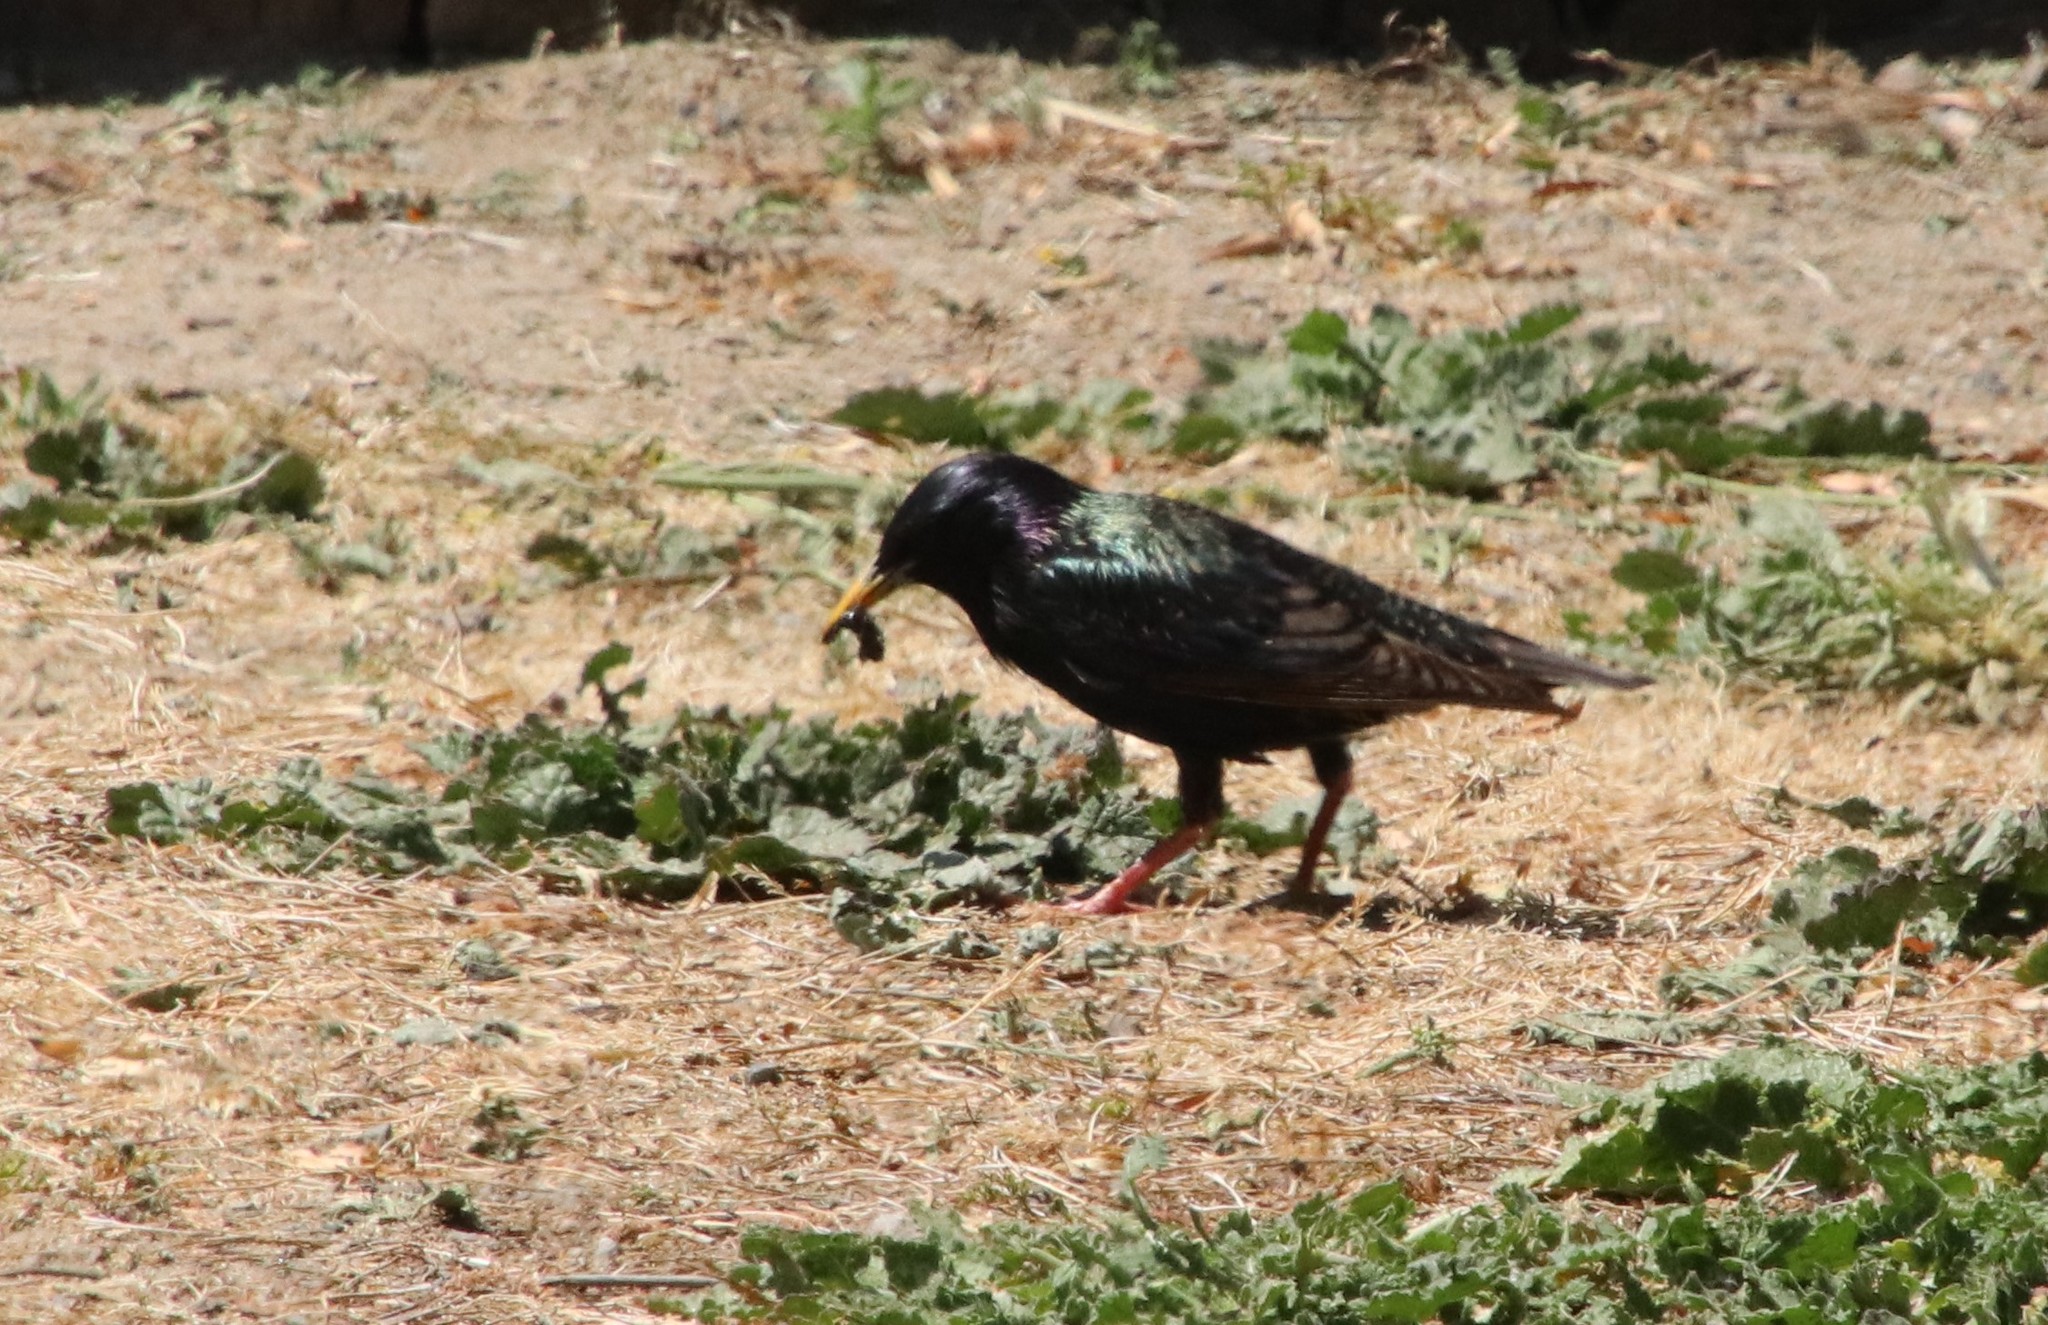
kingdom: Animalia
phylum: Chordata
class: Aves
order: Passeriformes
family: Sturnidae
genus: Sturnus
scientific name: Sturnus vulgaris
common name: Common starling
